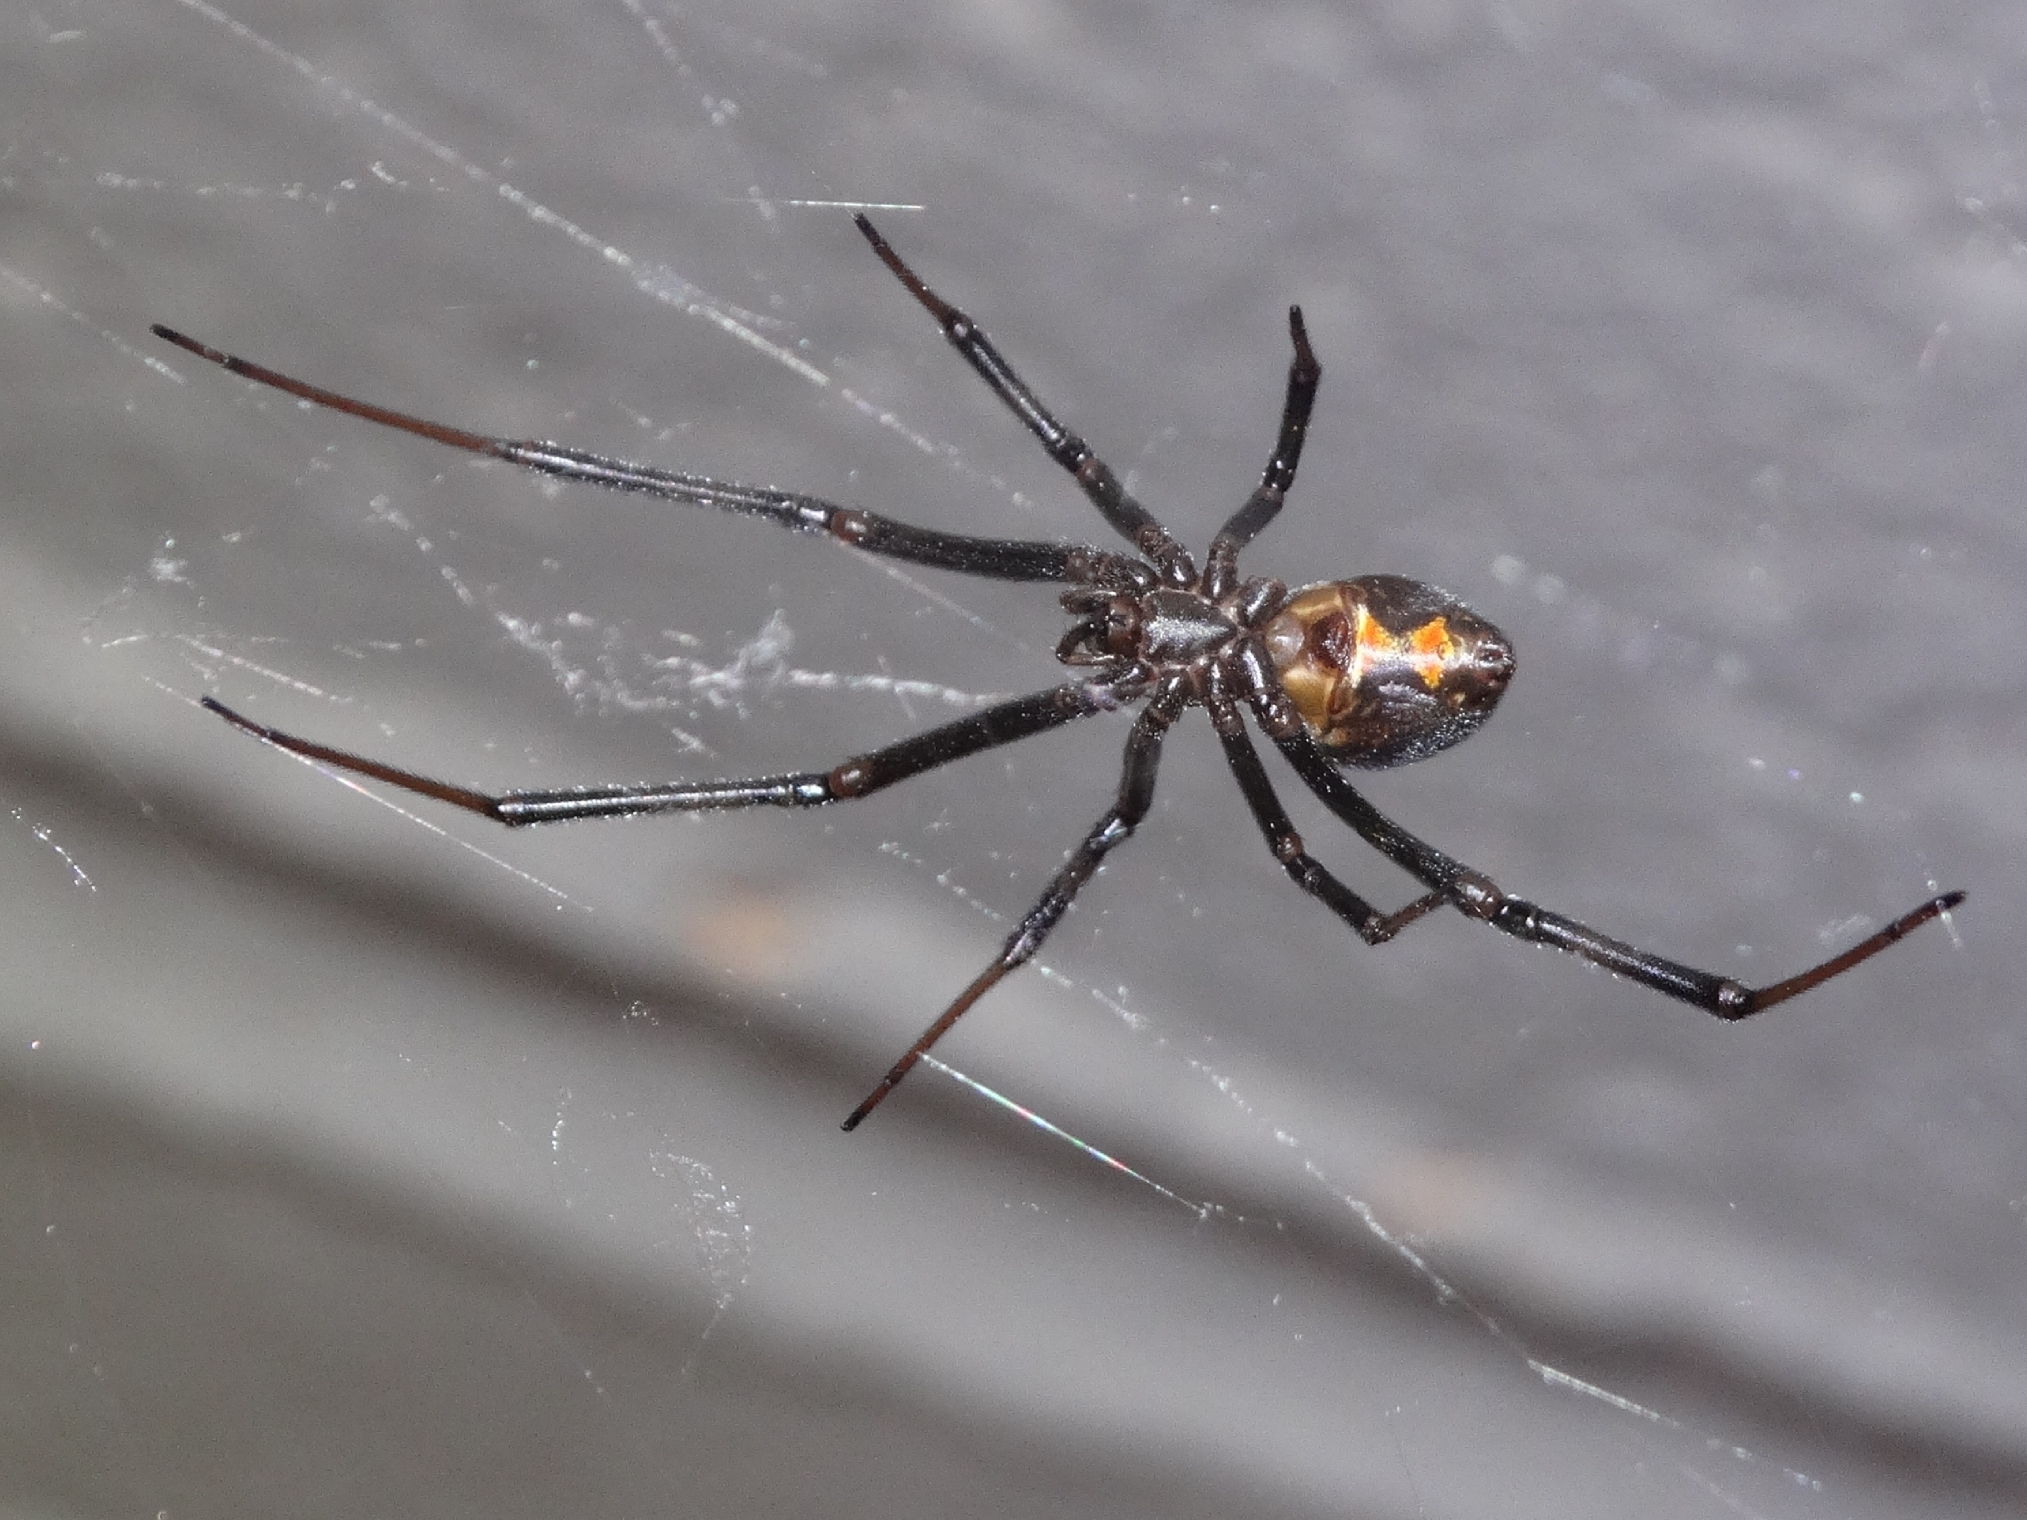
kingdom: Animalia
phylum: Arthropoda
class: Arachnida
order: Araneae
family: Theridiidae
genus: Latrodectus
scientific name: Latrodectus hesperus
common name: Western black widow
